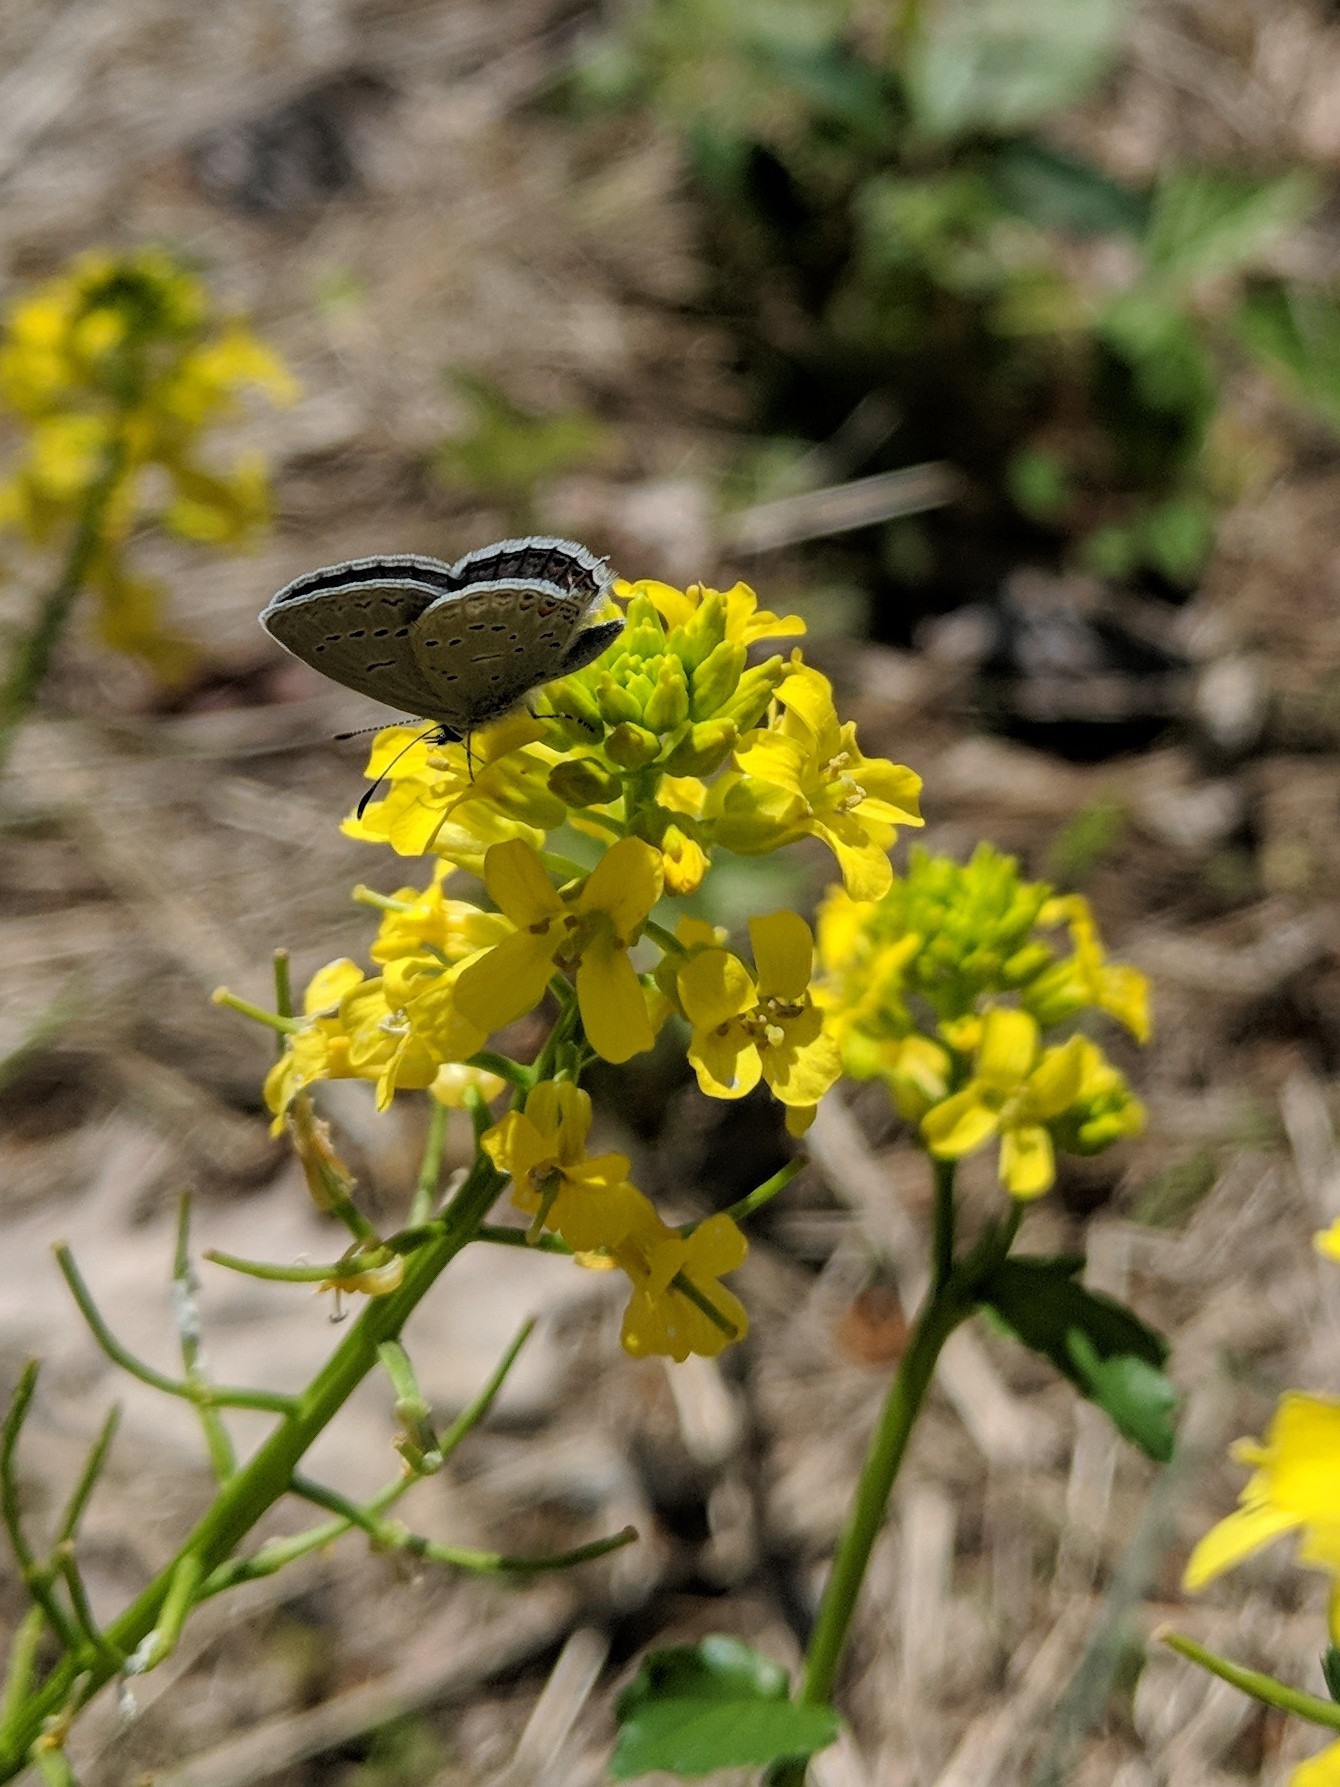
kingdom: Animalia
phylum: Arthropoda
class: Insecta
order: Lepidoptera
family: Lycaenidae
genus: Elkalyce
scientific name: Elkalyce comyntas
